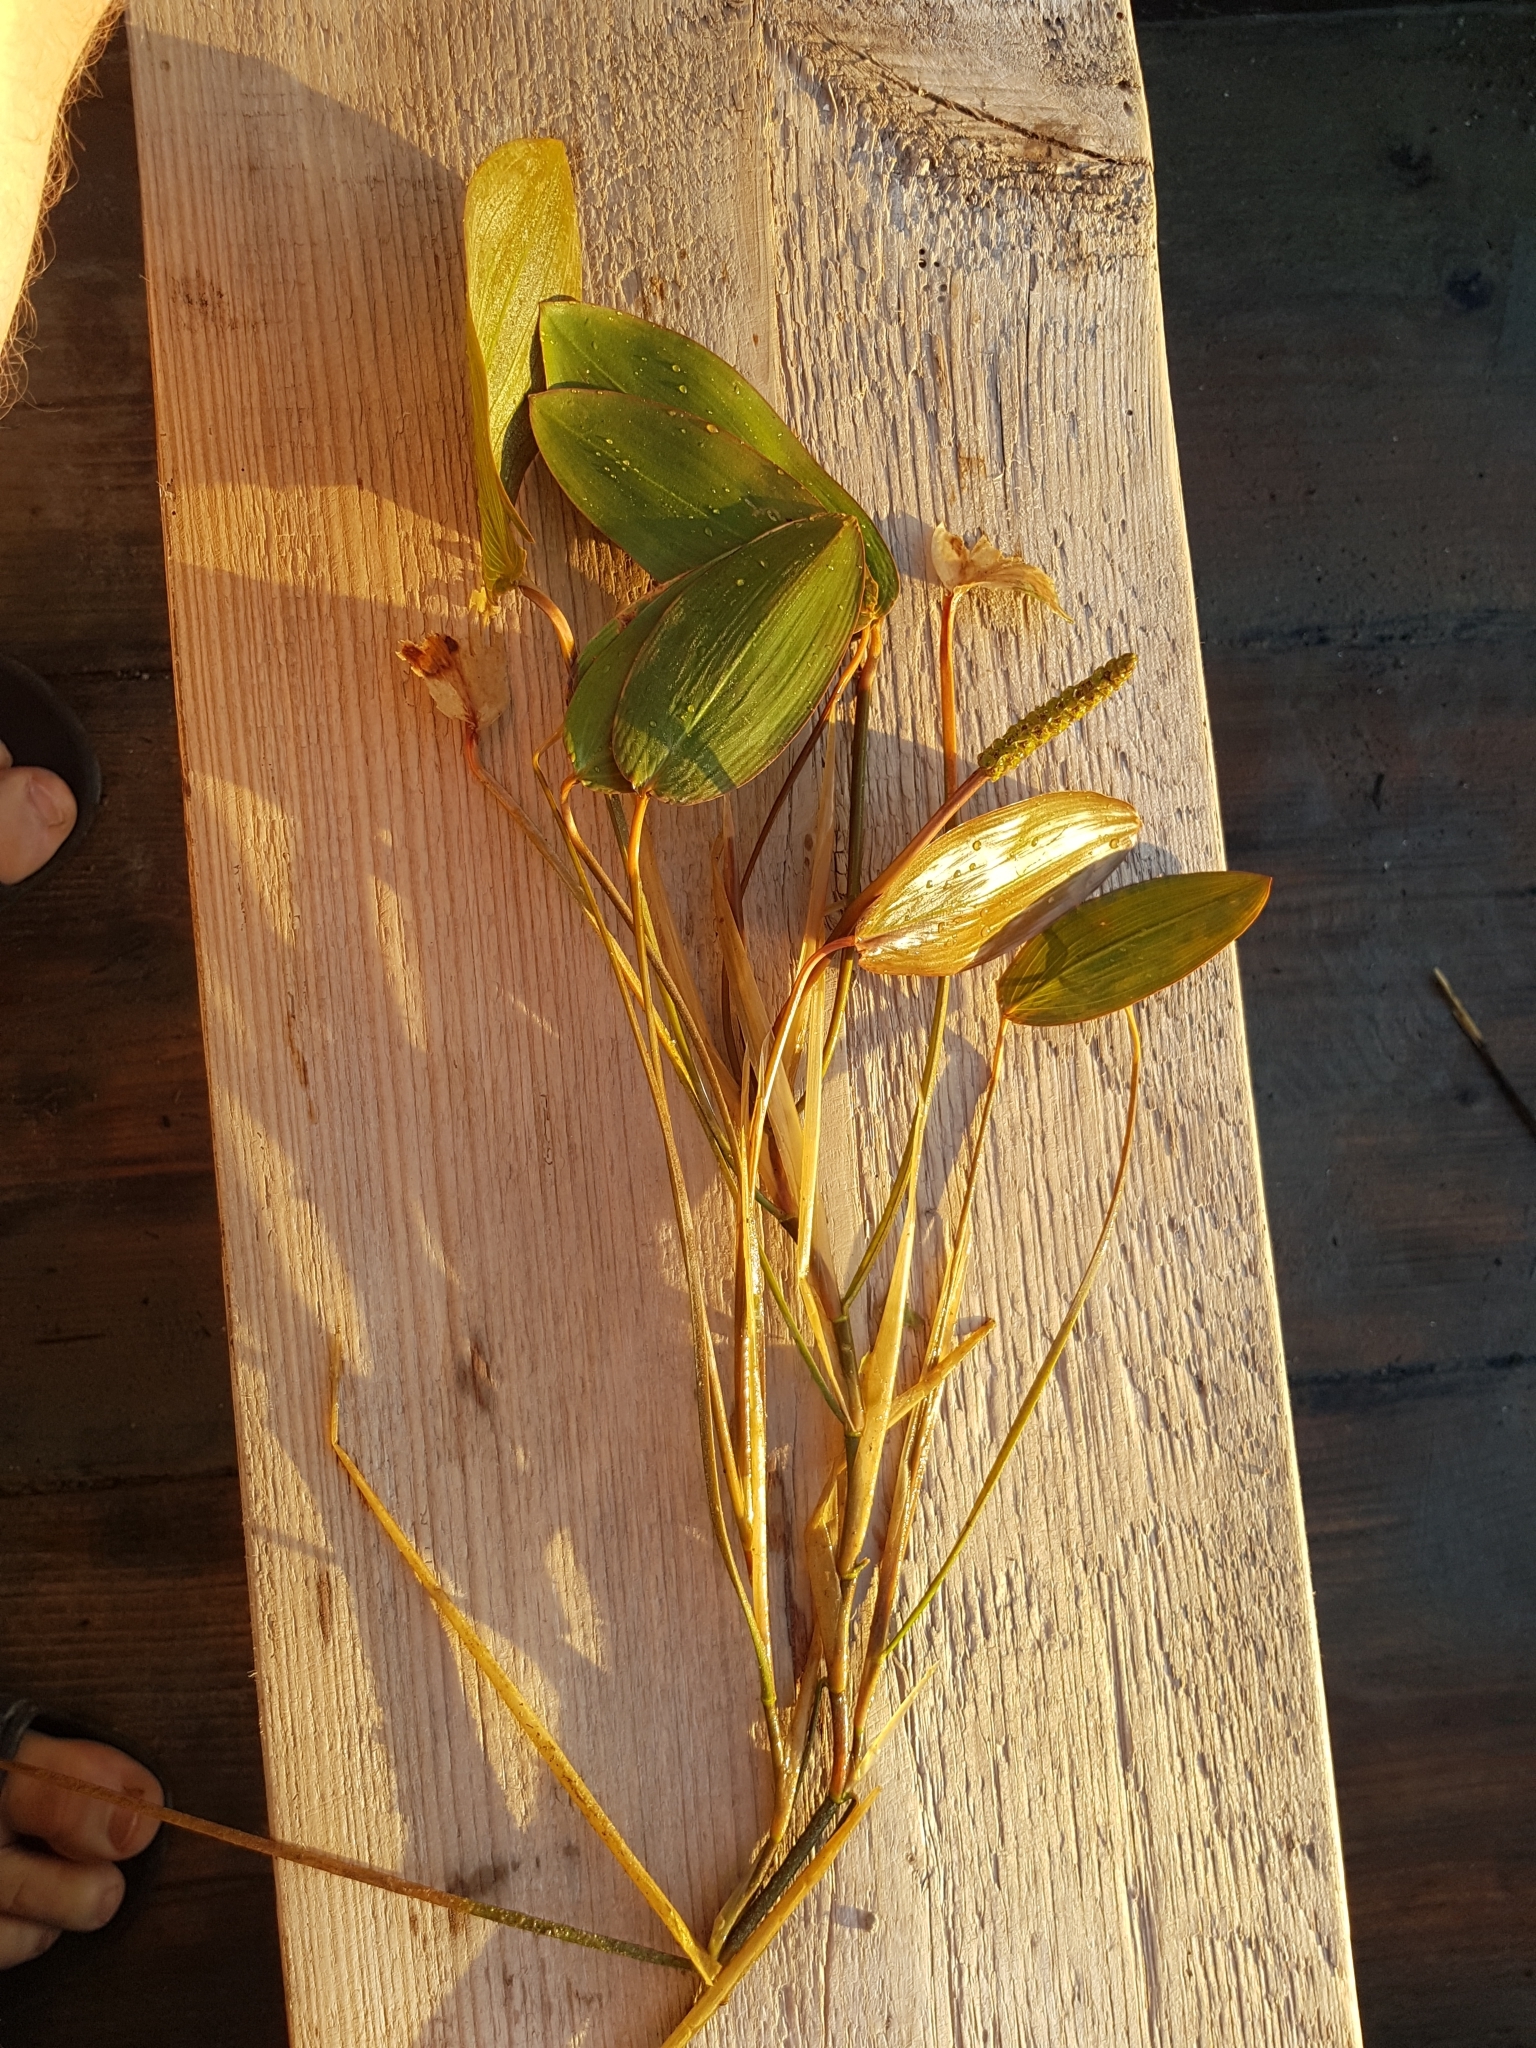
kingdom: Plantae
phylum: Tracheophyta
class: Liliopsida
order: Alismatales
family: Potamogetonaceae
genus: Potamogeton
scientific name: Potamogeton natans
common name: Broad-leaved pondweed
